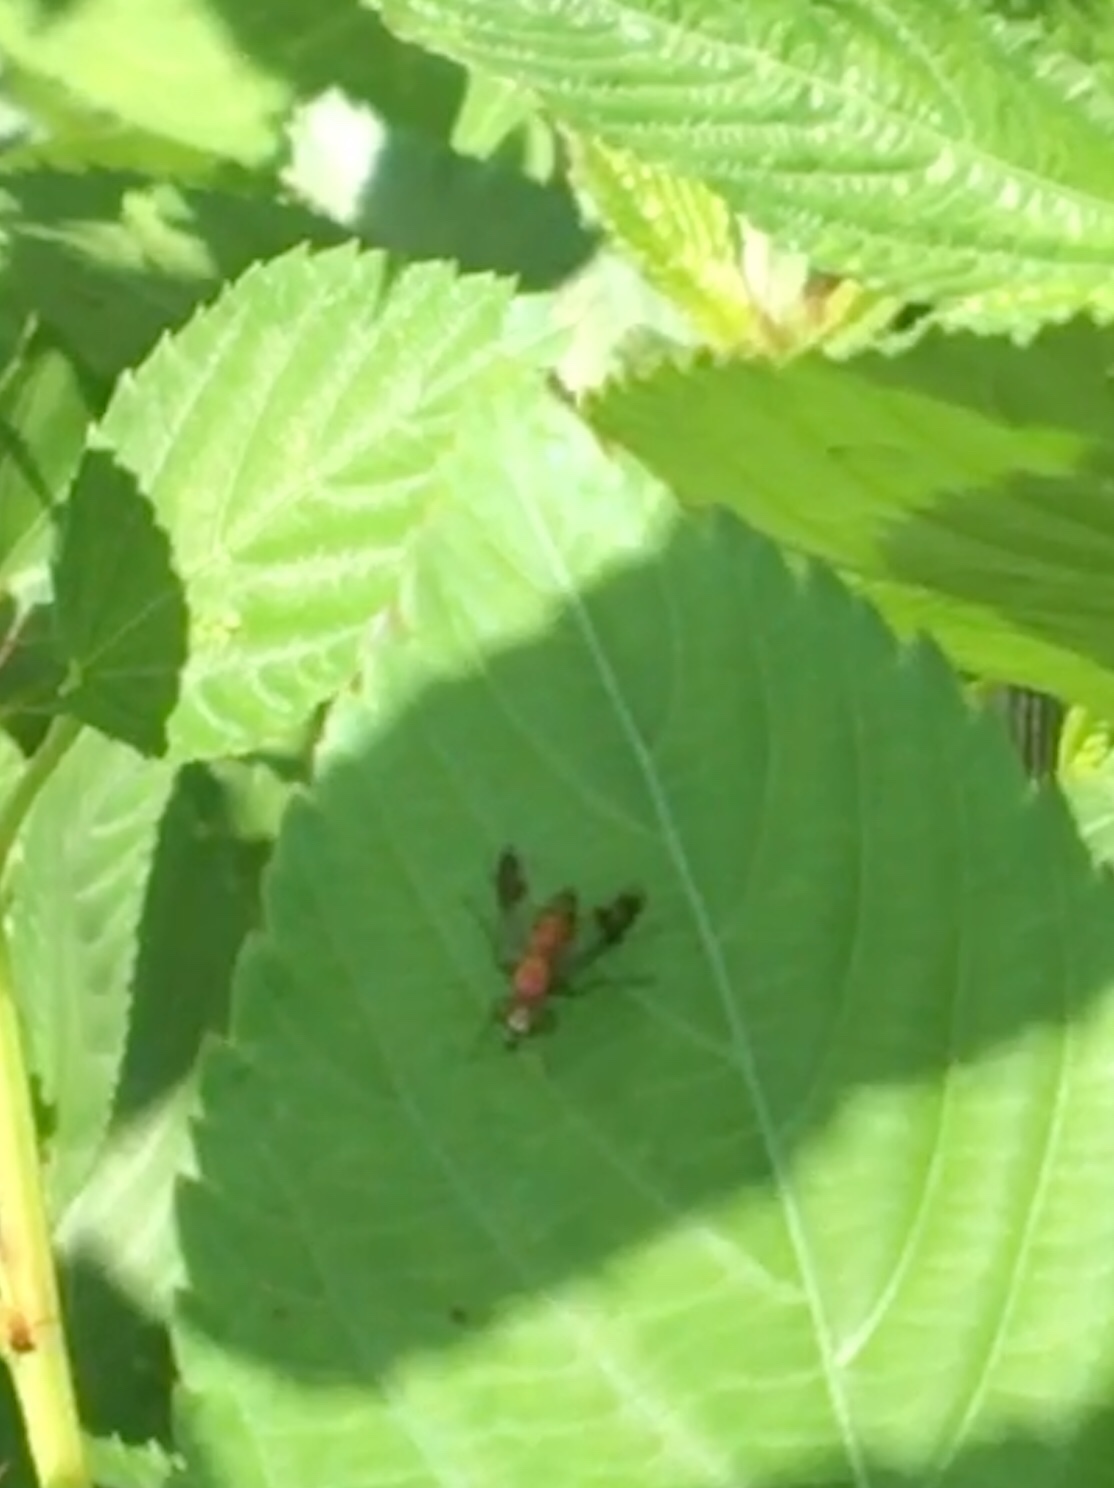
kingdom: Animalia
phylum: Arthropoda
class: Insecta
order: Diptera
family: Dolichopodidae
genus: Condylostylus
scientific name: Condylostylus patibulatus
